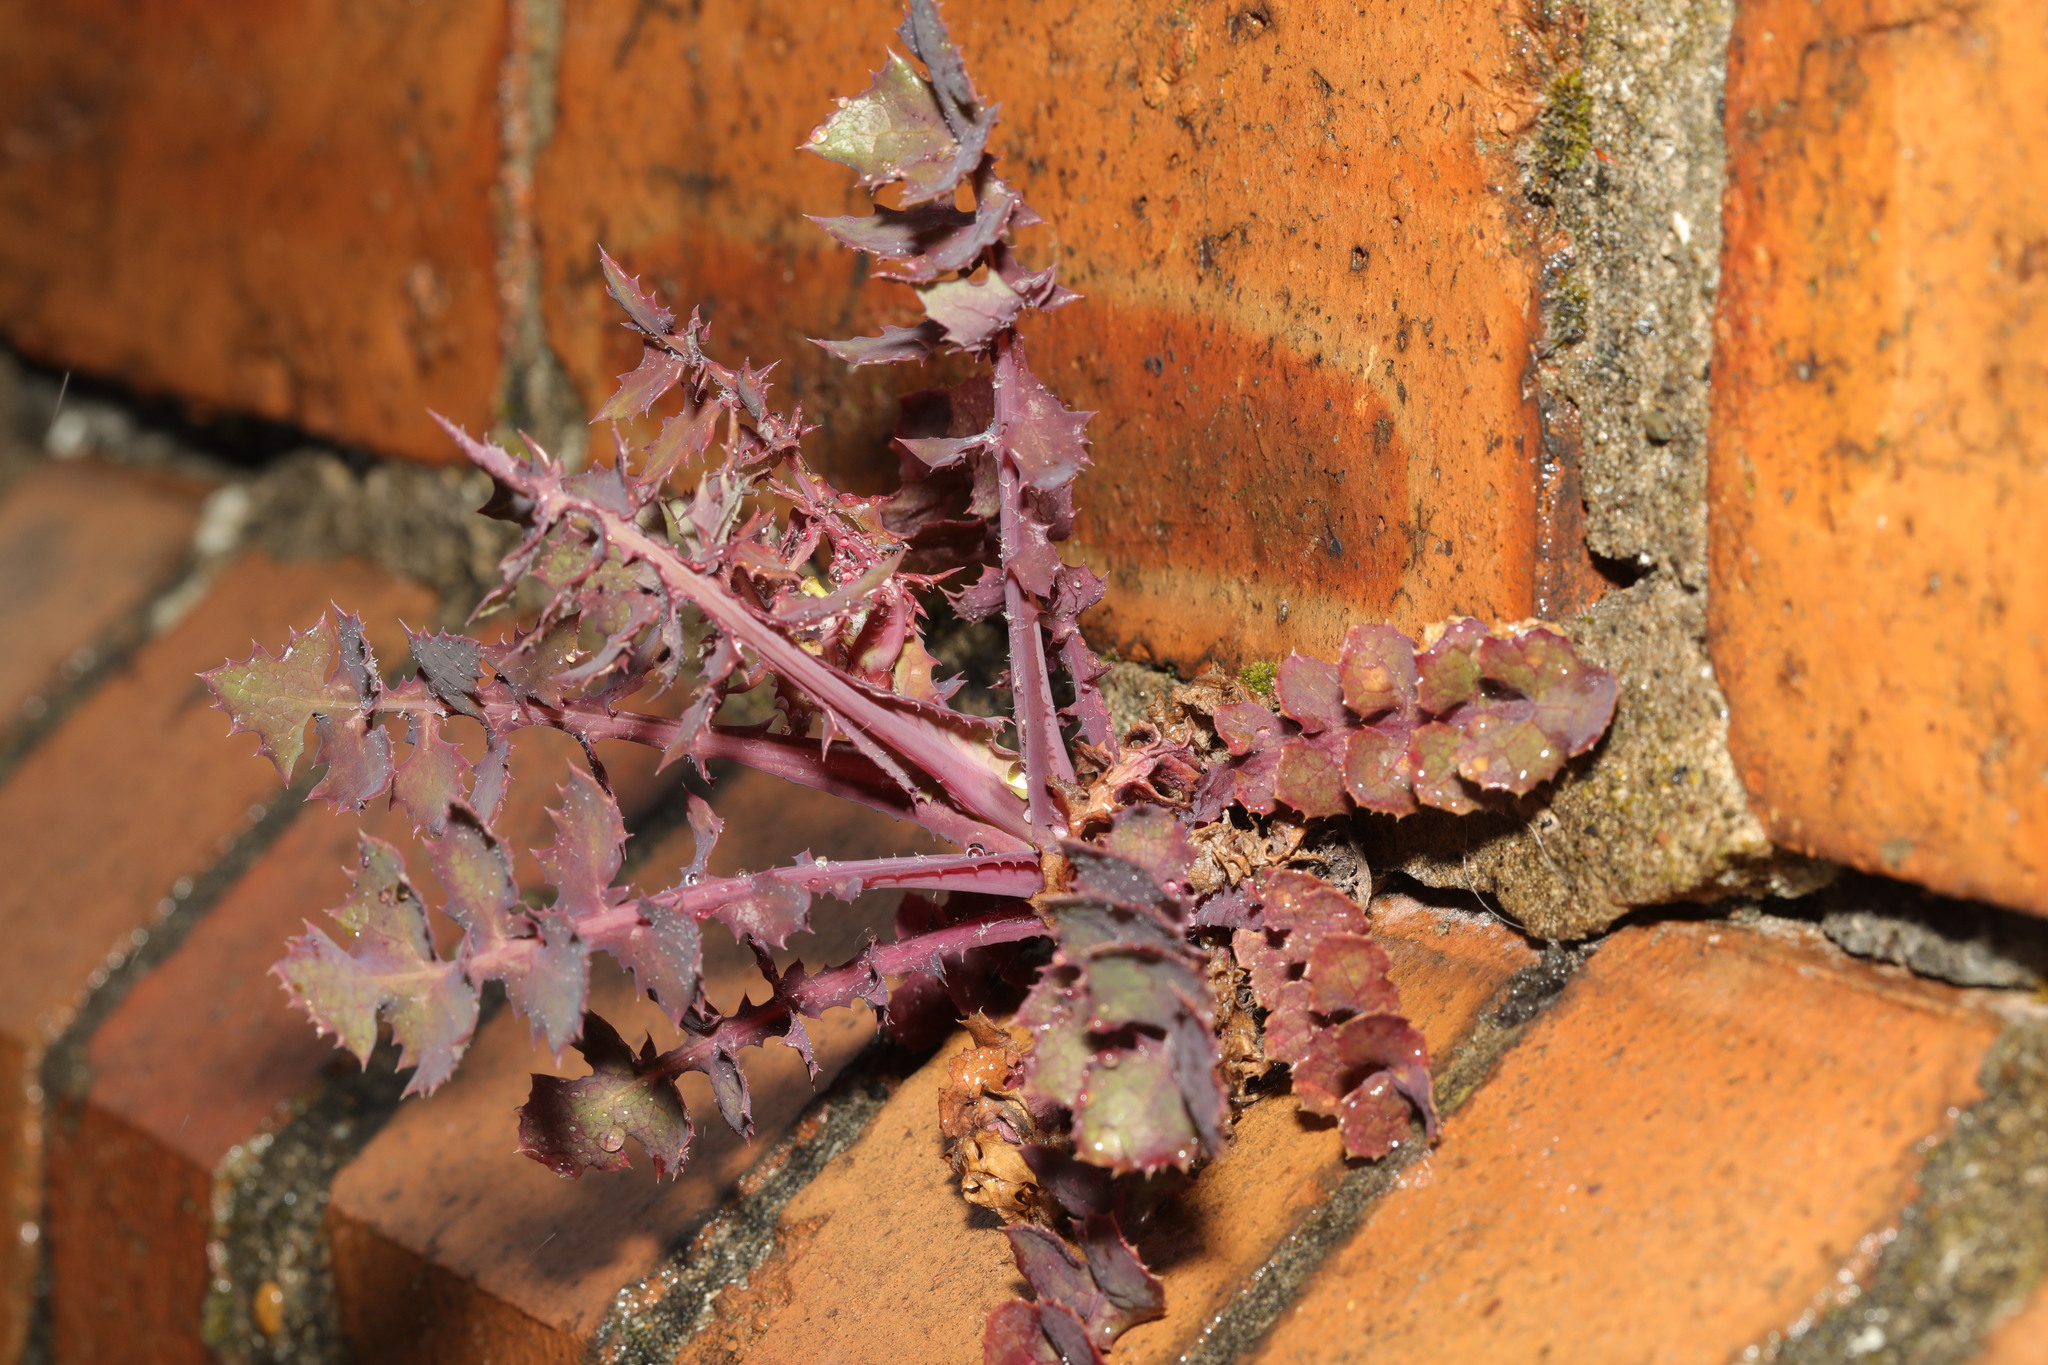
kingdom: Plantae
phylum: Tracheophyta
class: Magnoliopsida
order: Asterales
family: Asteraceae
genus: Sonchus
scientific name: Sonchus oleraceus
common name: Common sowthistle
